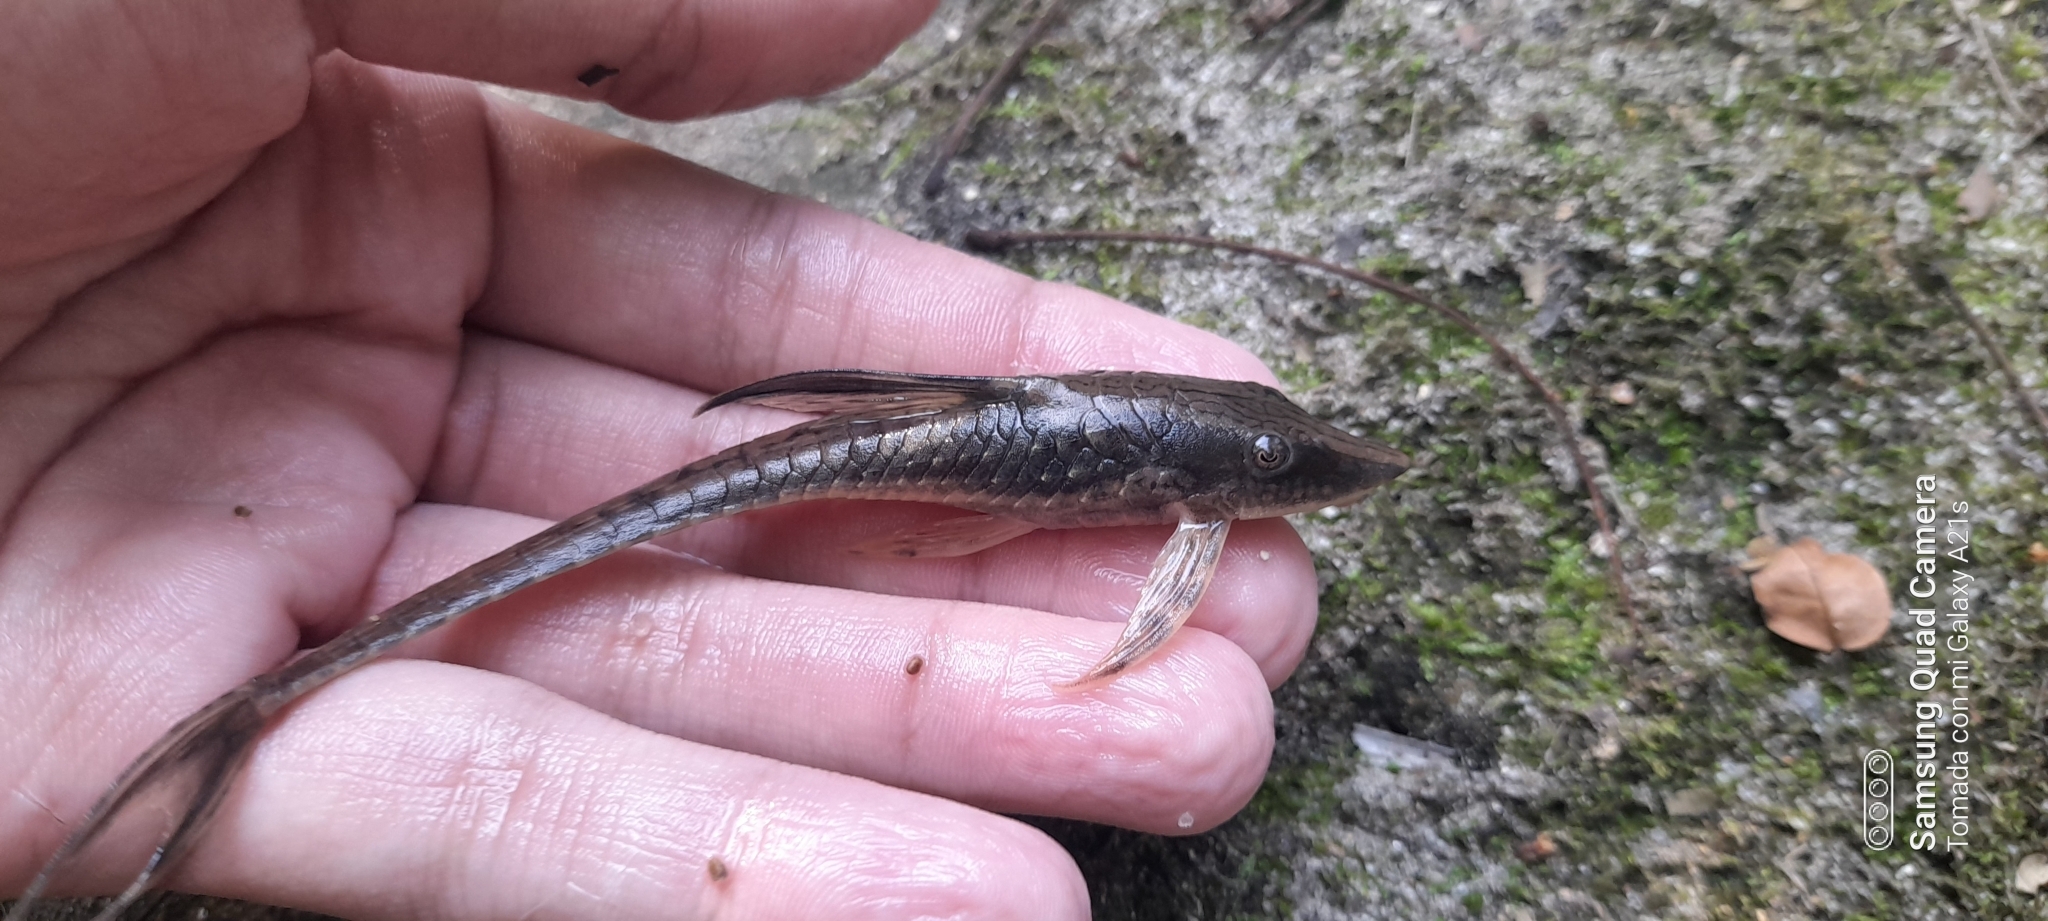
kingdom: Animalia
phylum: Chordata
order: Siluriformes
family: Loricariidae
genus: Sturisomatichthys
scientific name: Sturisomatichthys panamense
